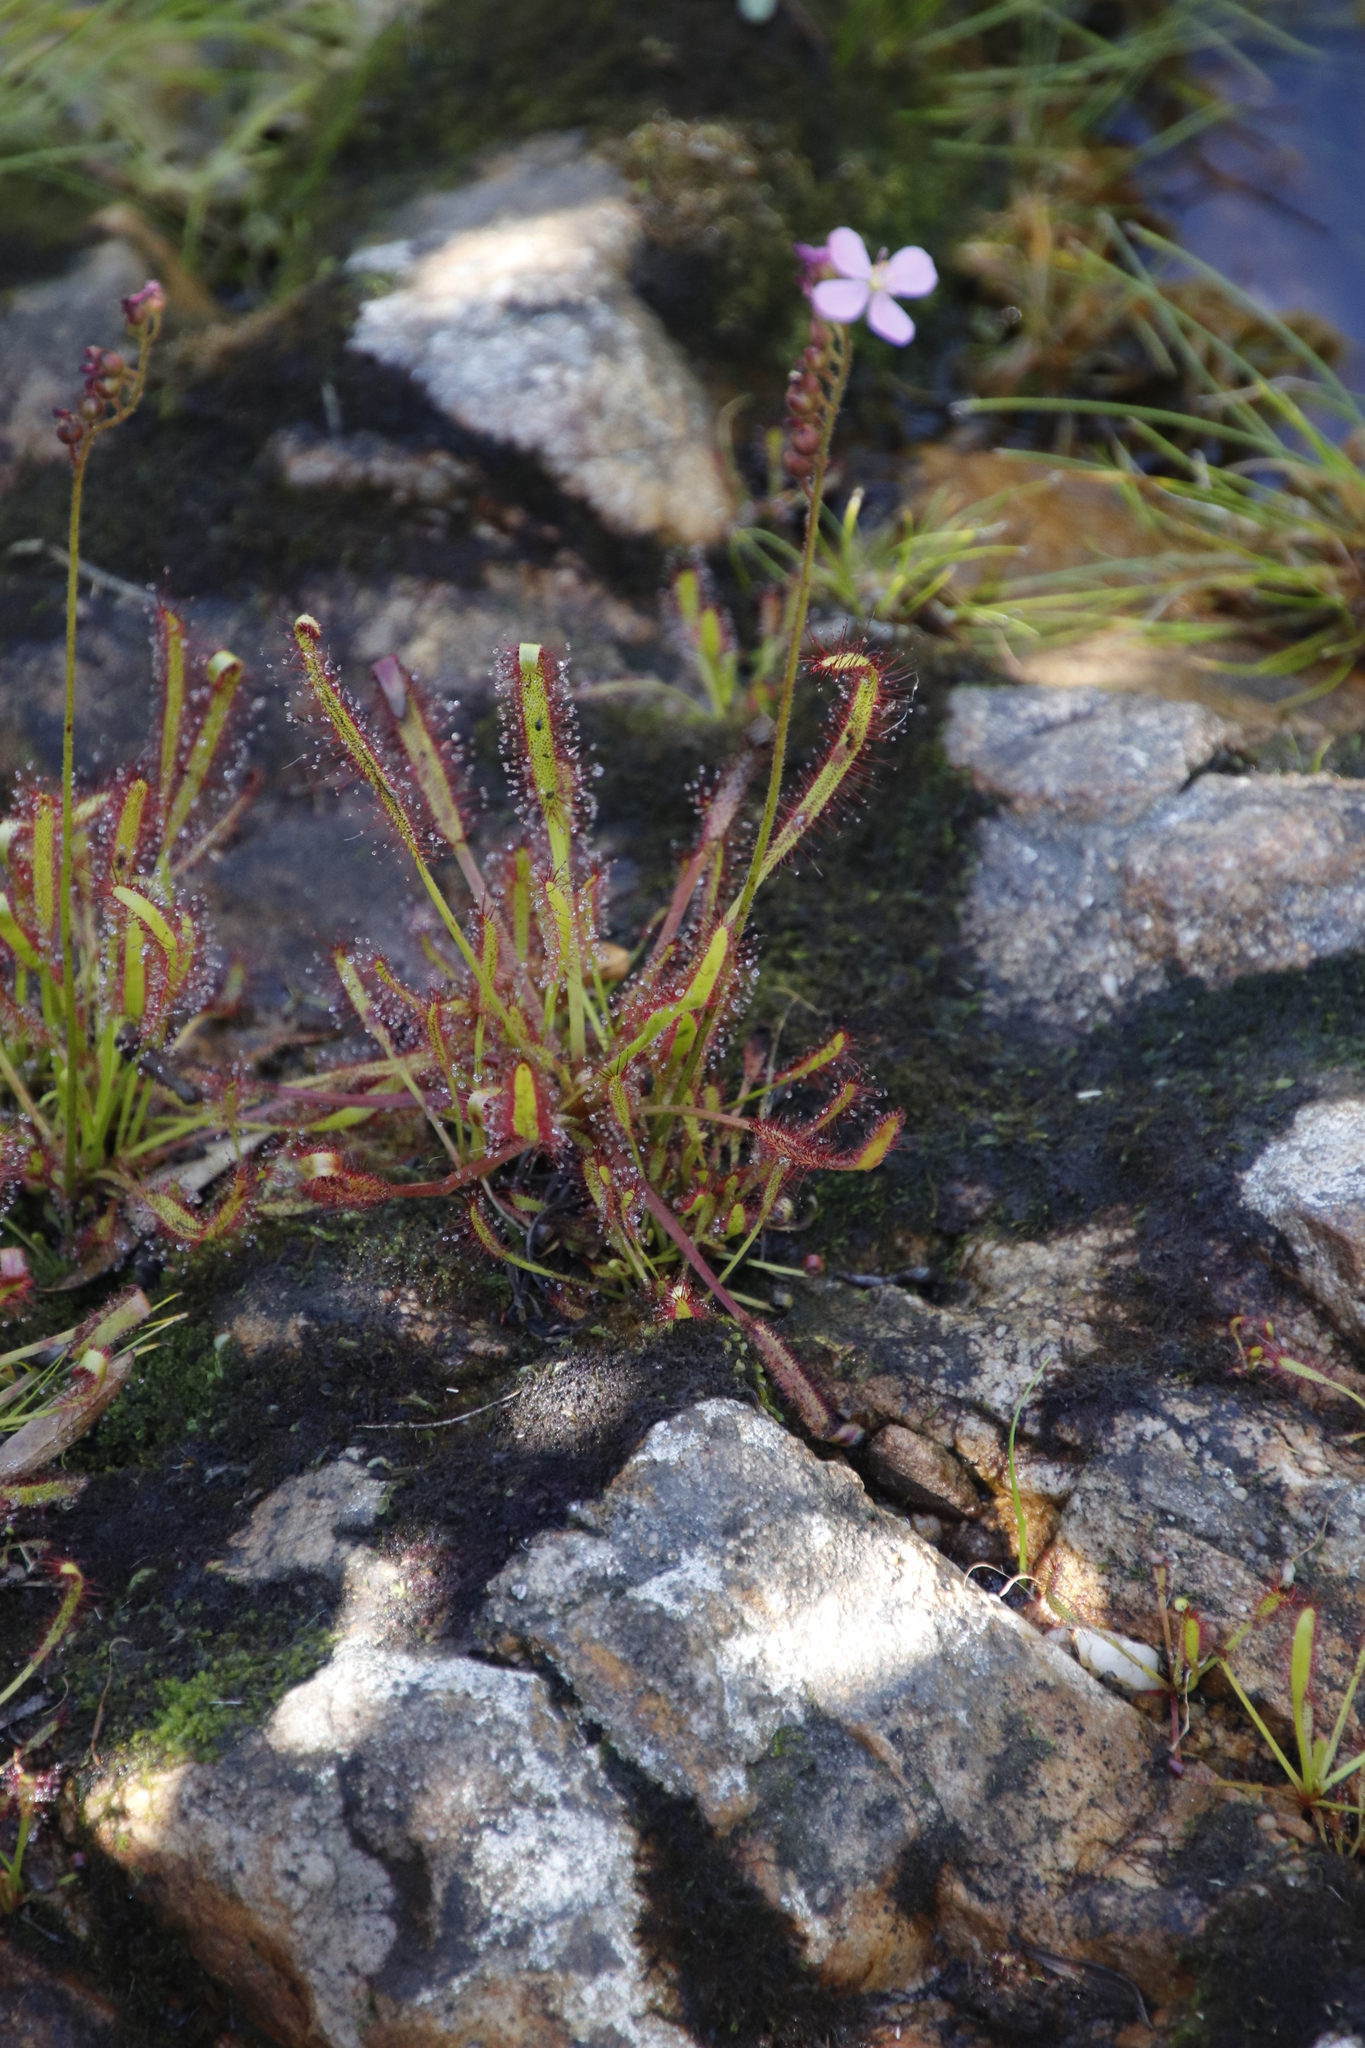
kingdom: Plantae
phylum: Tracheophyta
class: Magnoliopsida
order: Caryophyllales
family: Droseraceae
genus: Drosera
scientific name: Drosera capensis
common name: Cape sundew
